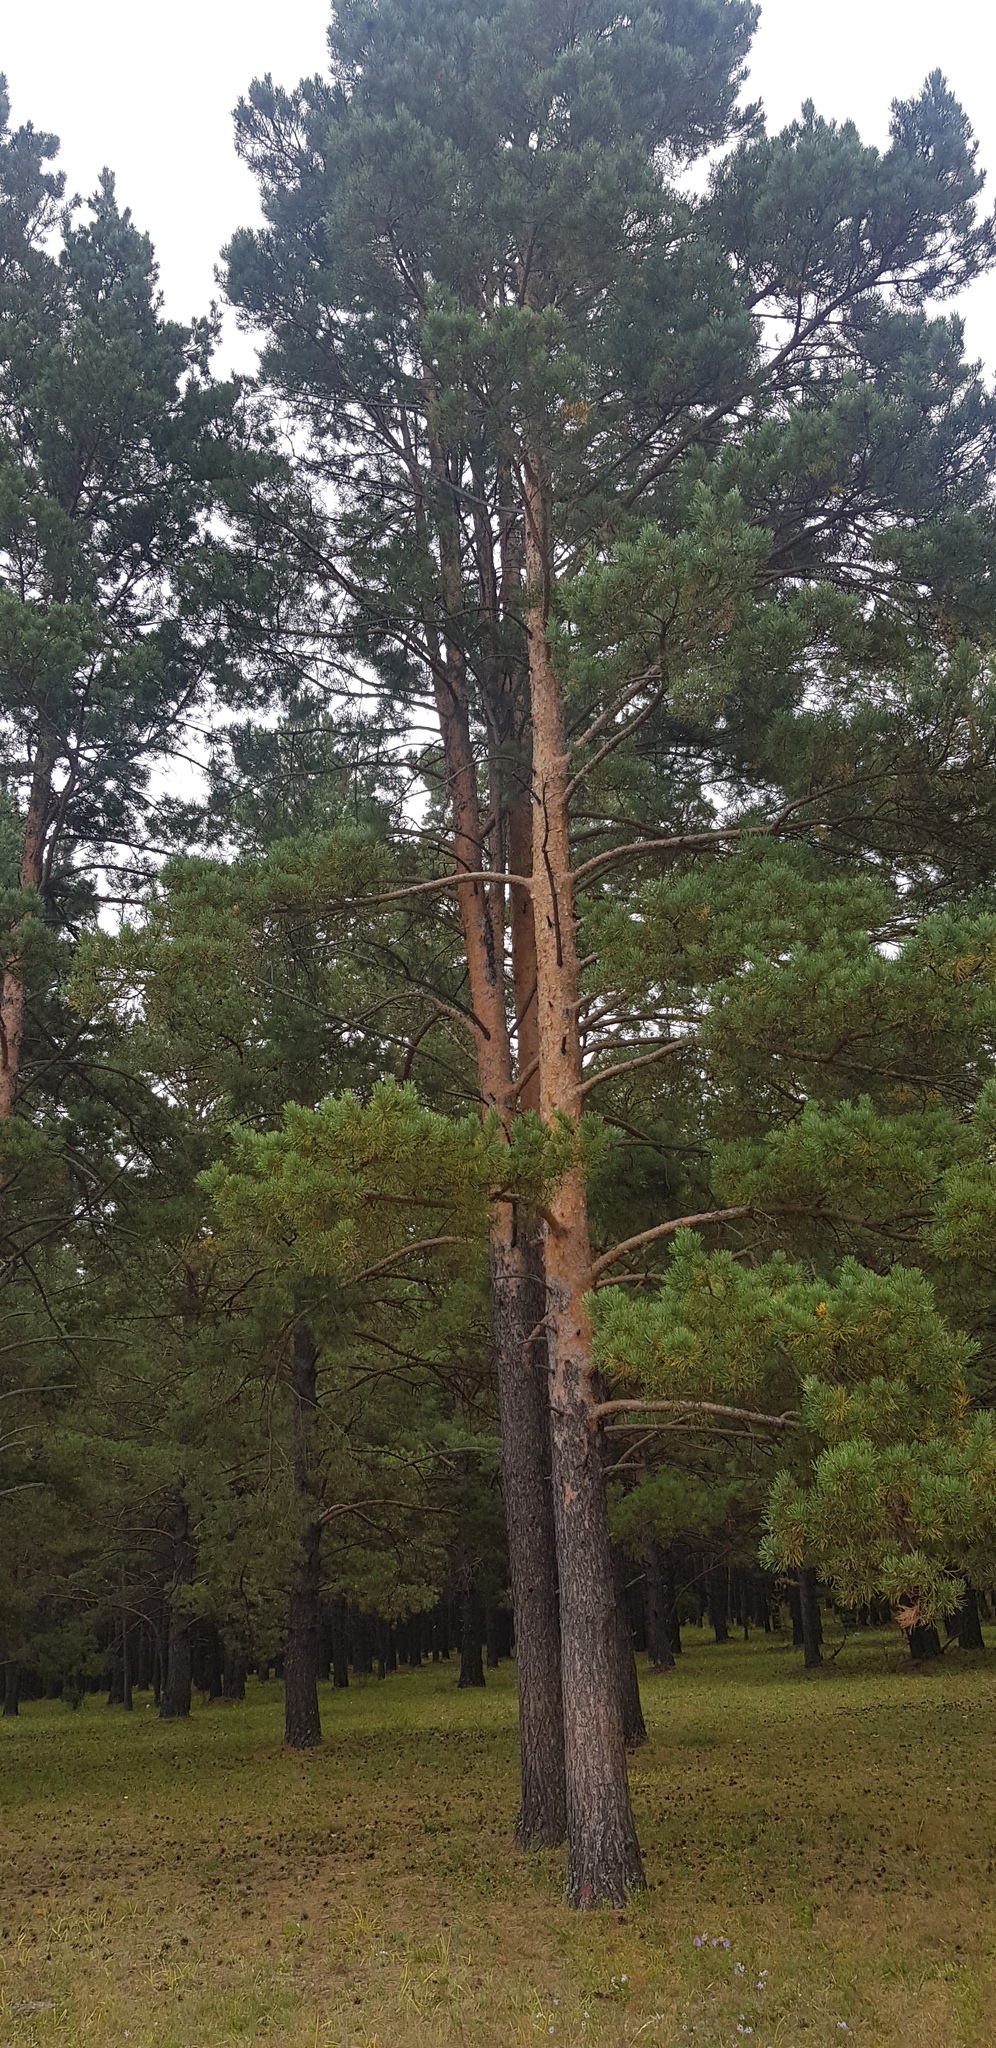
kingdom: Plantae
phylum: Tracheophyta
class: Pinopsida
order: Pinales
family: Pinaceae
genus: Pinus
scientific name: Pinus sylvestris
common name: Scots pine
